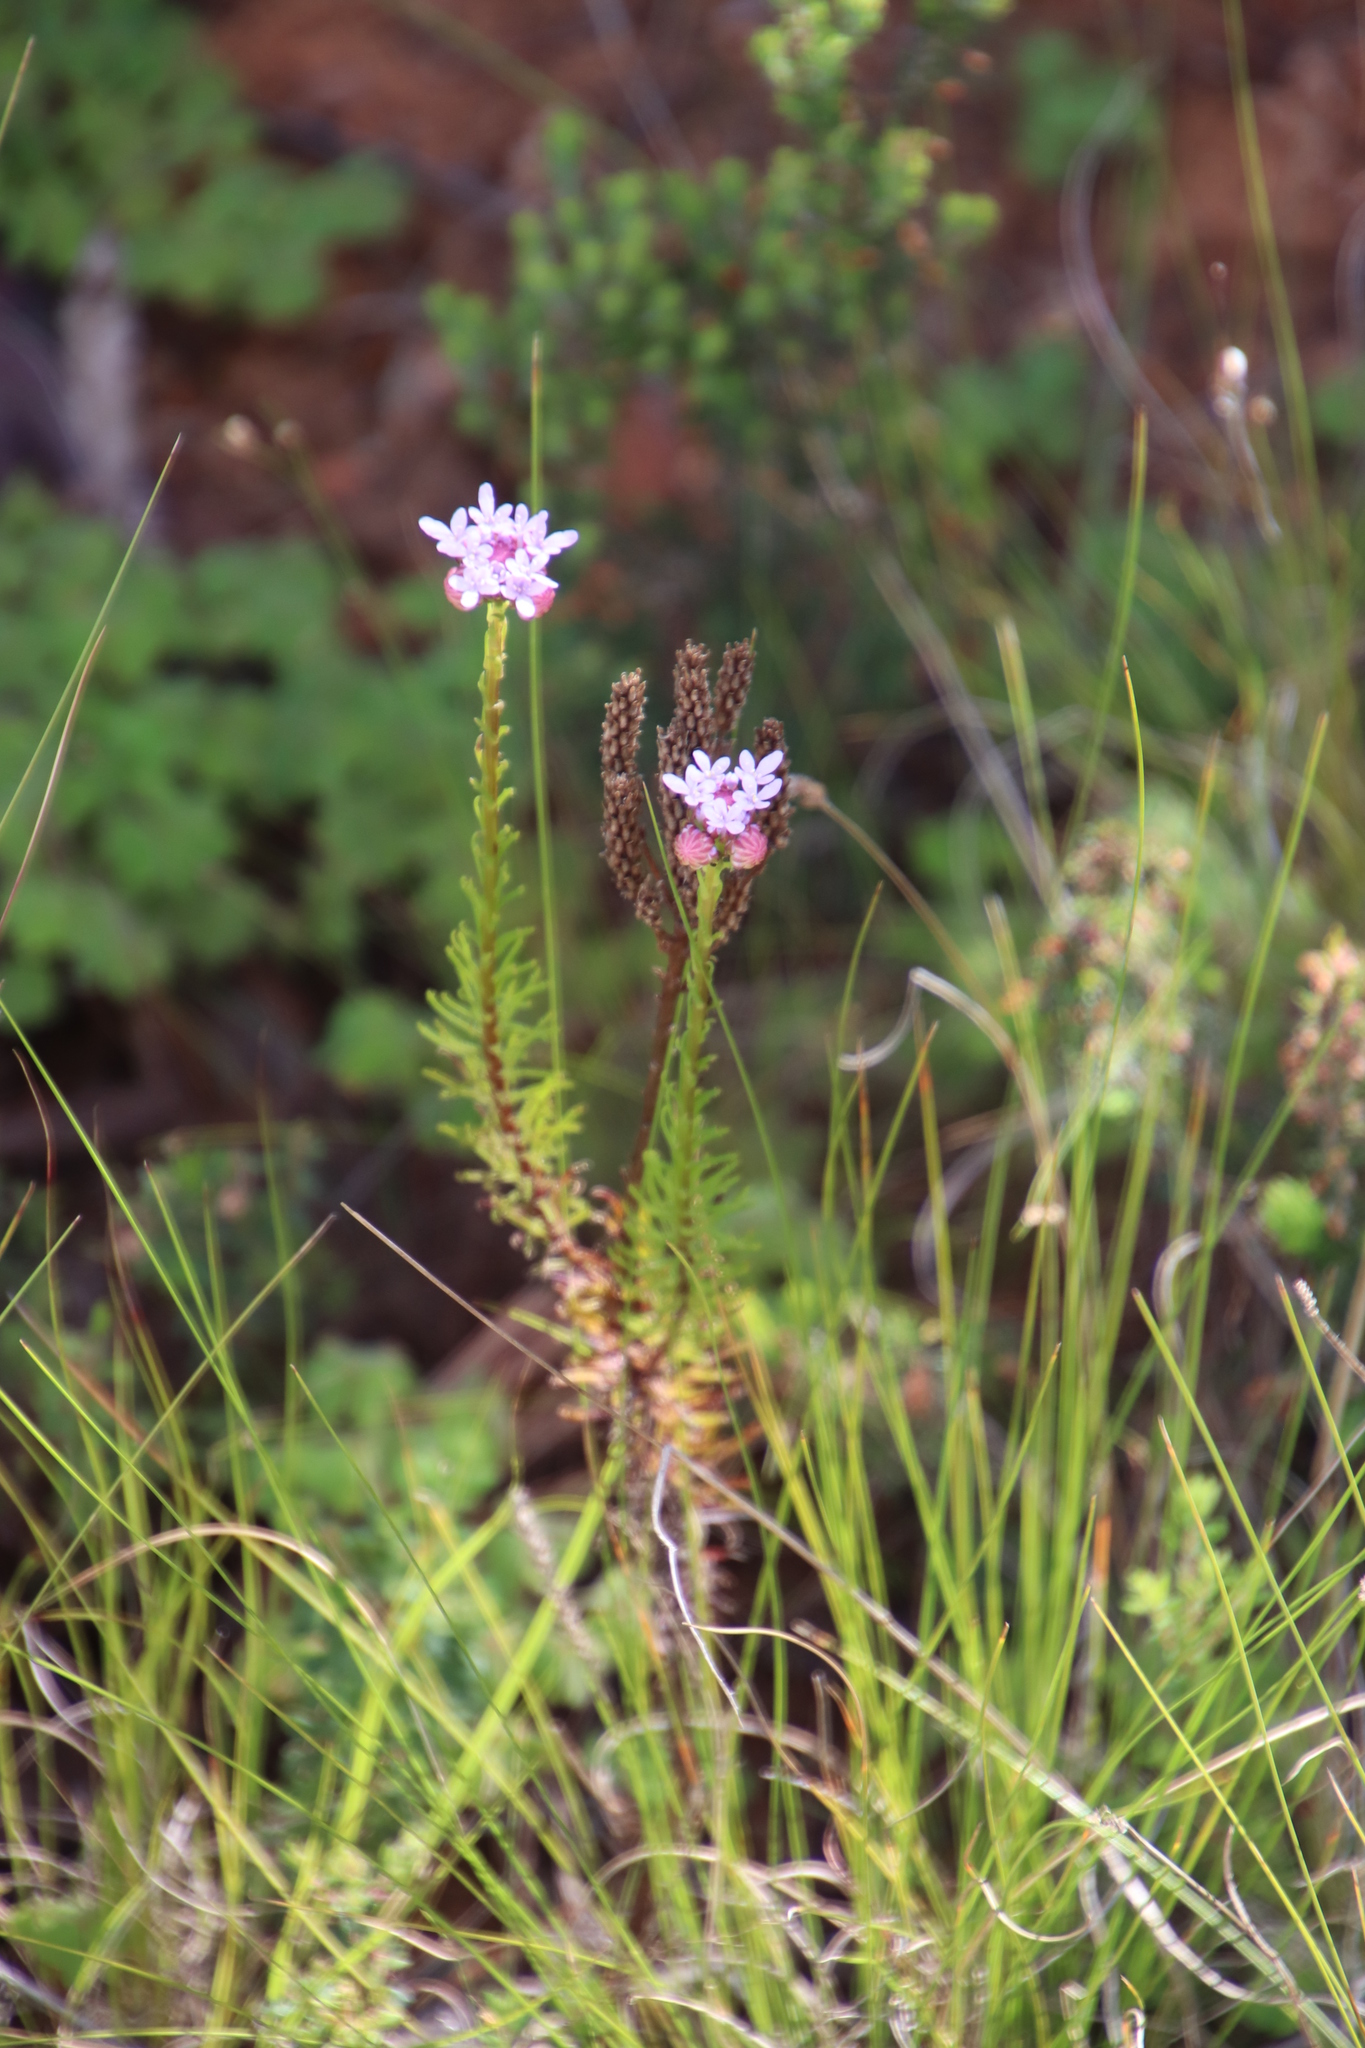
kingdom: Plantae
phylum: Tracheophyta
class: Magnoliopsida
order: Lamiales
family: Scrophulariaceae
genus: Pseudoselago
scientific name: Pseudoselago spuria
